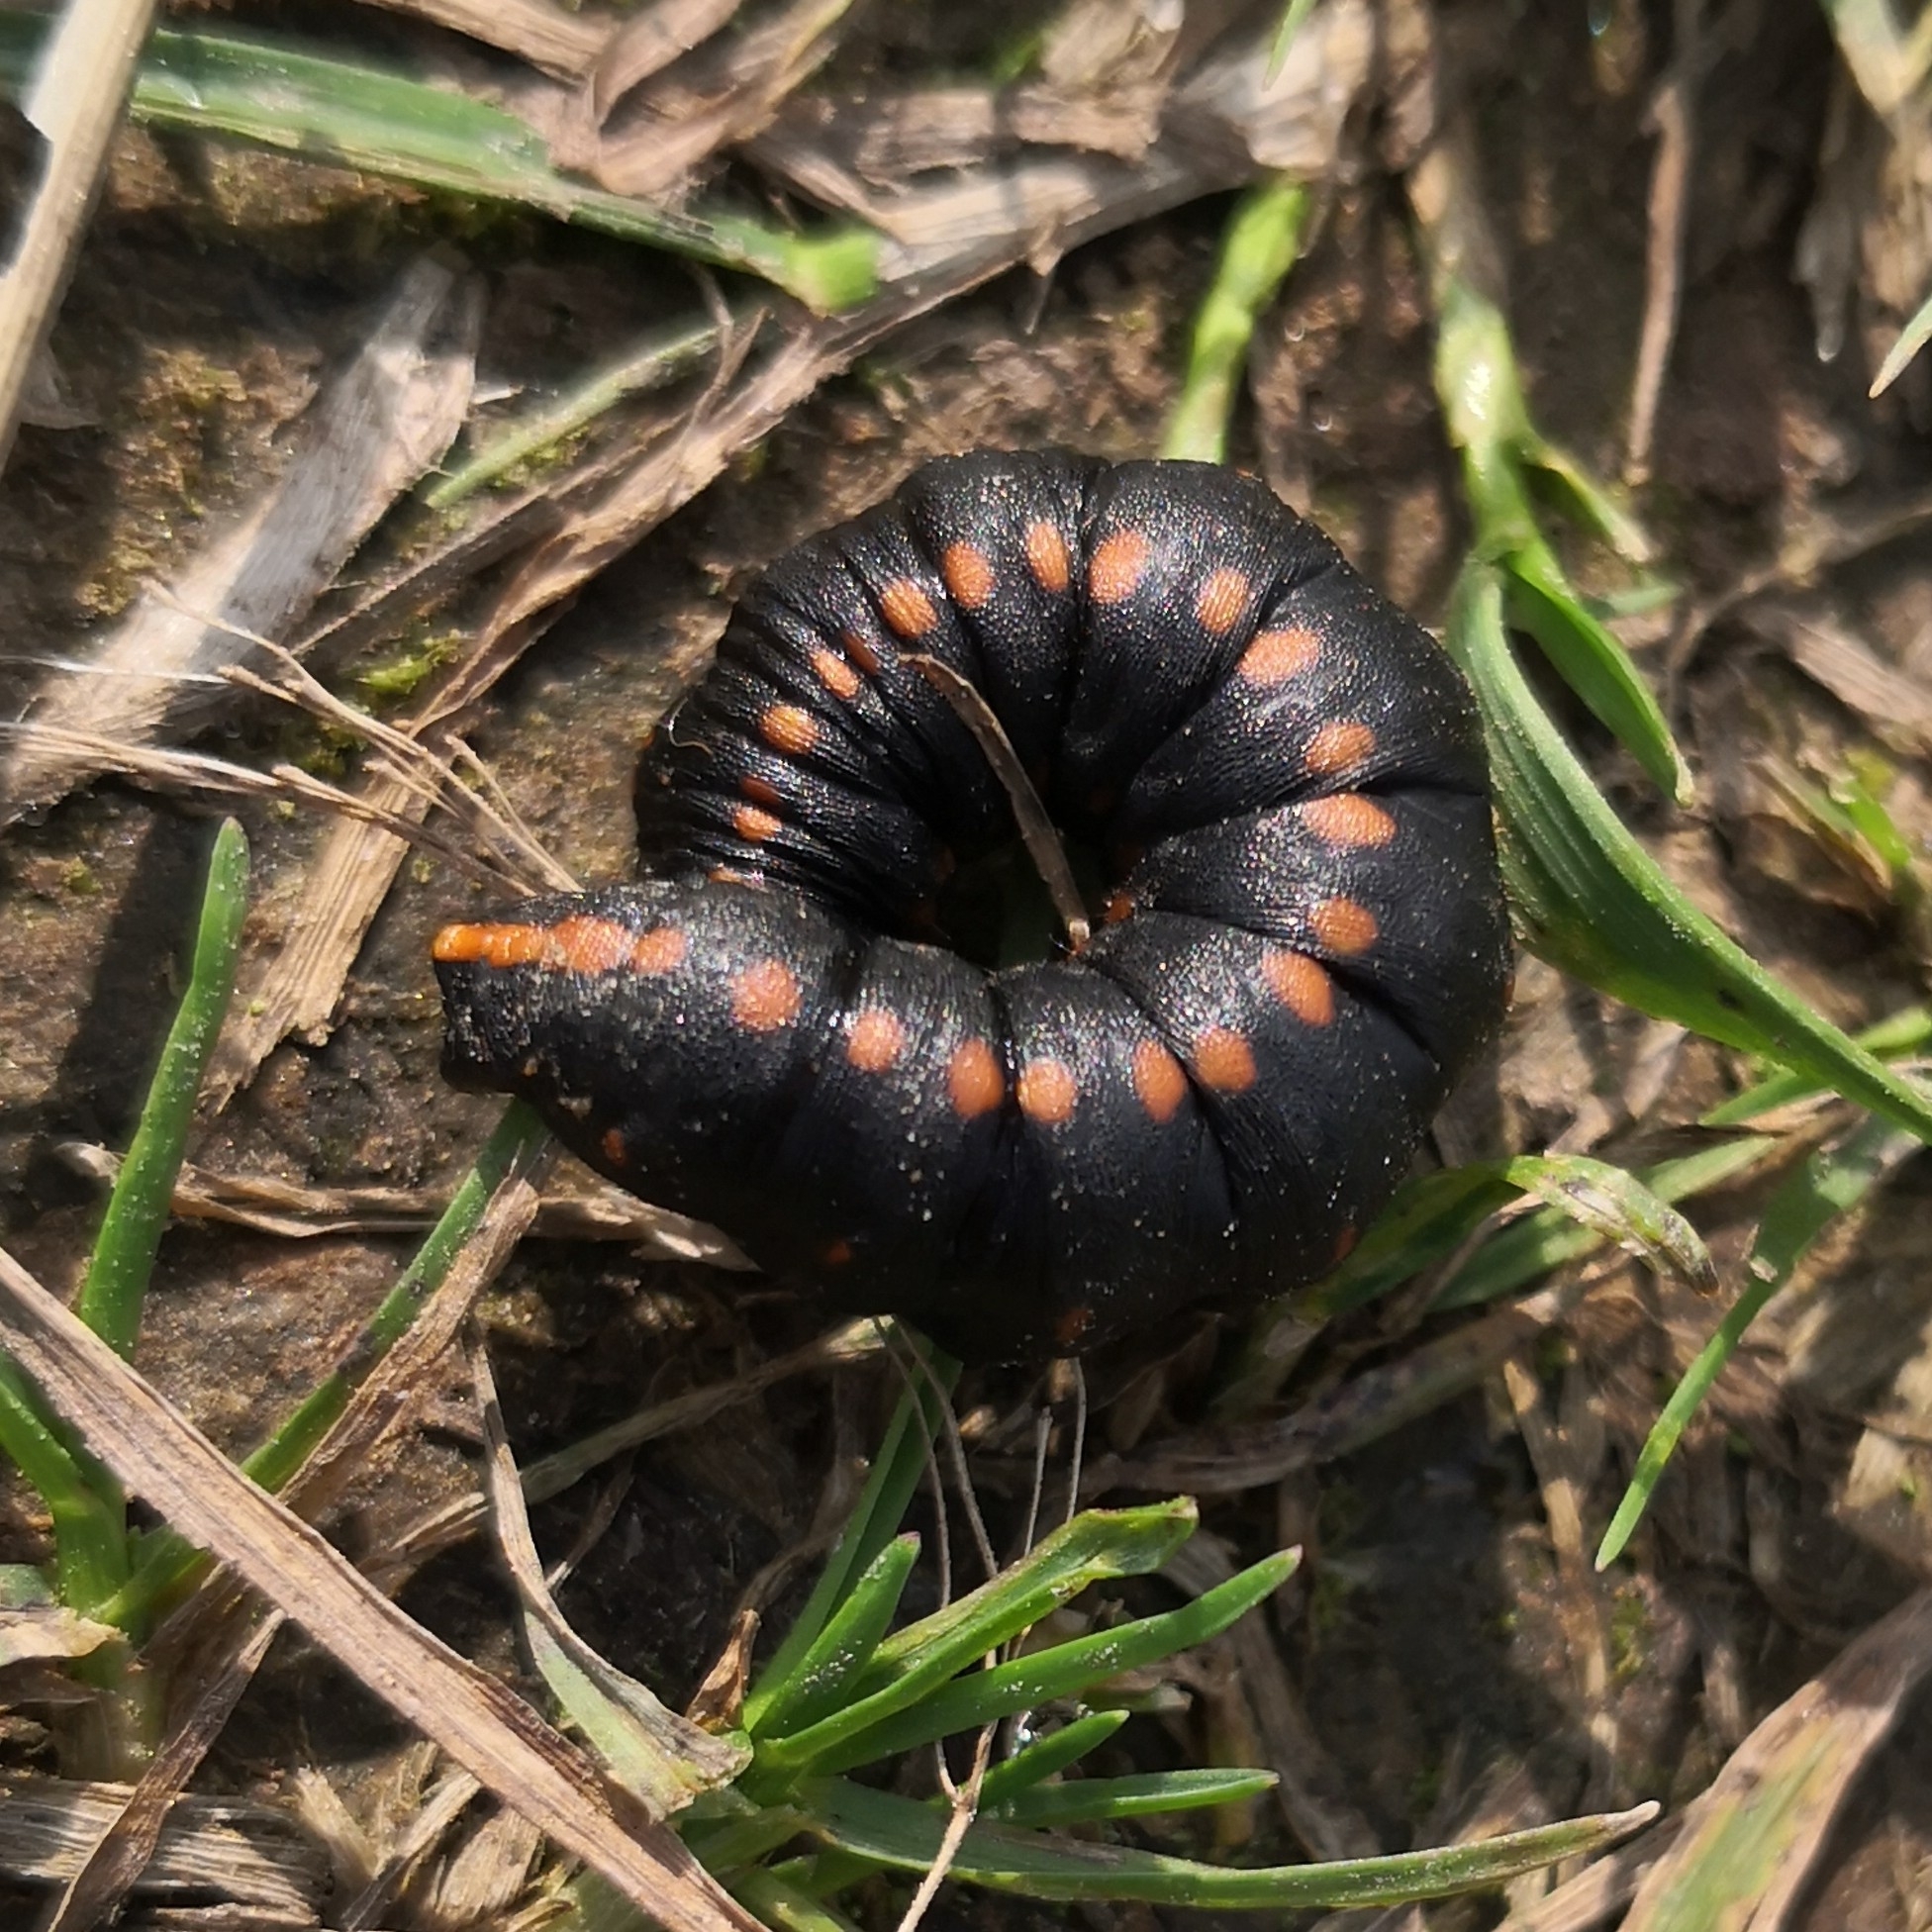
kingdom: Animalia
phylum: Arthropoda
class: Insecta
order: Lepidoptera
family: Noctuidae
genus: Cucullia
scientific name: Cucullia lucifuga
